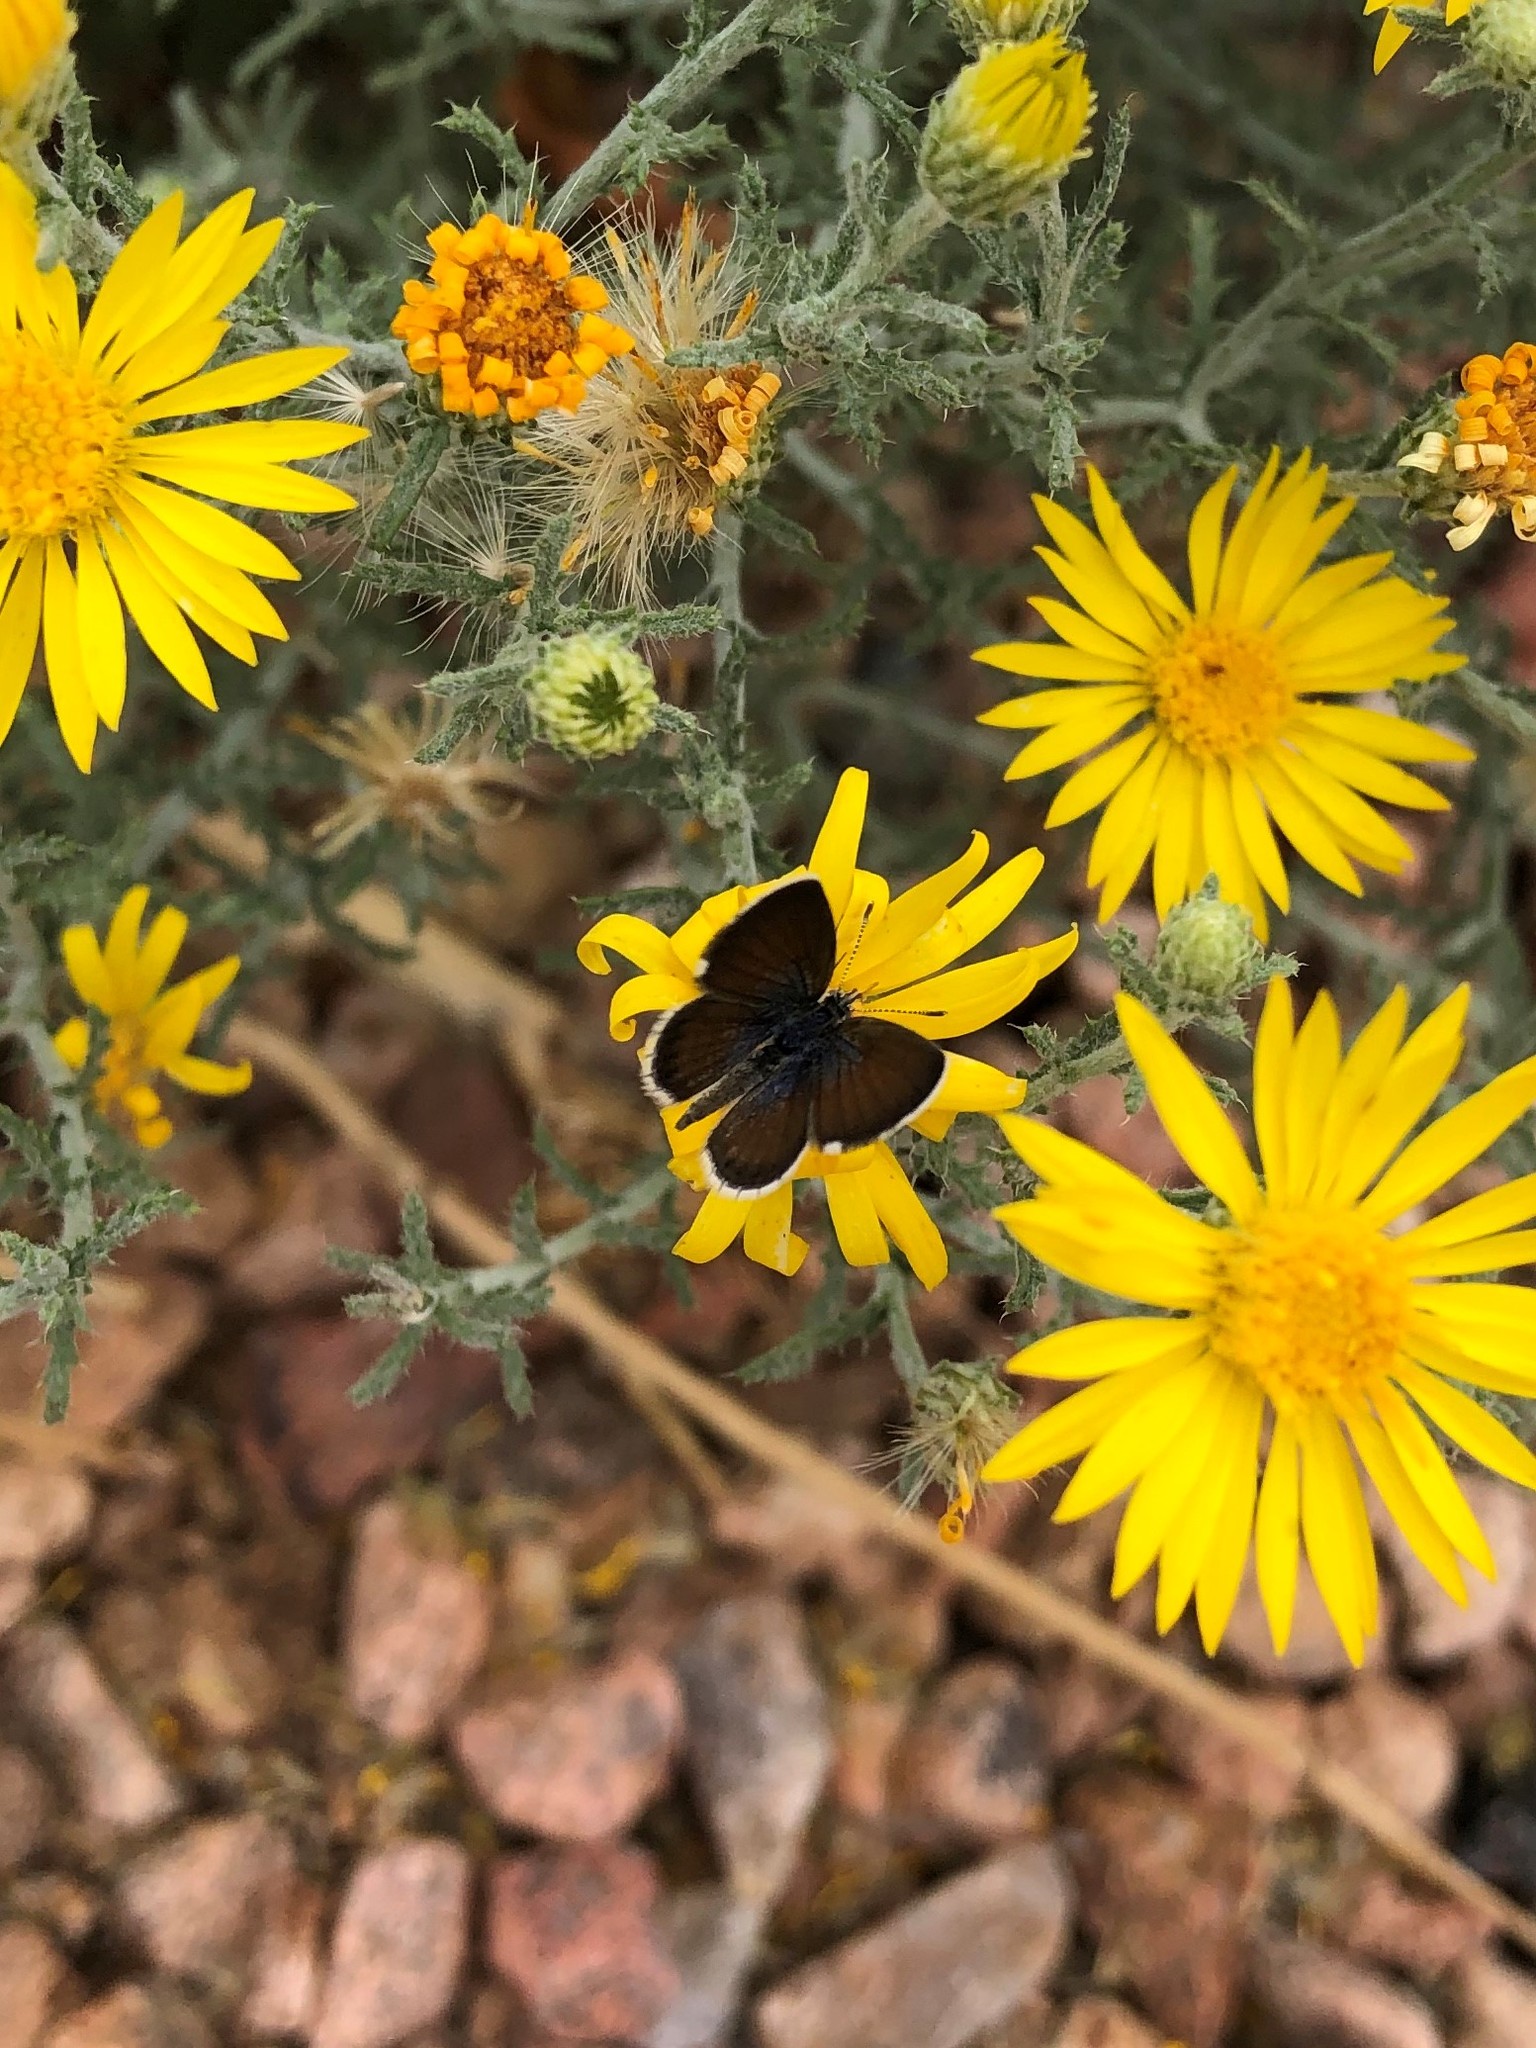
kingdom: Animalia
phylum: Arthropoda
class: Insecta
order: Lepidoptera
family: Lycaenidae
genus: Brephidium
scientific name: Brephidium exilis
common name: Pygmy blue
